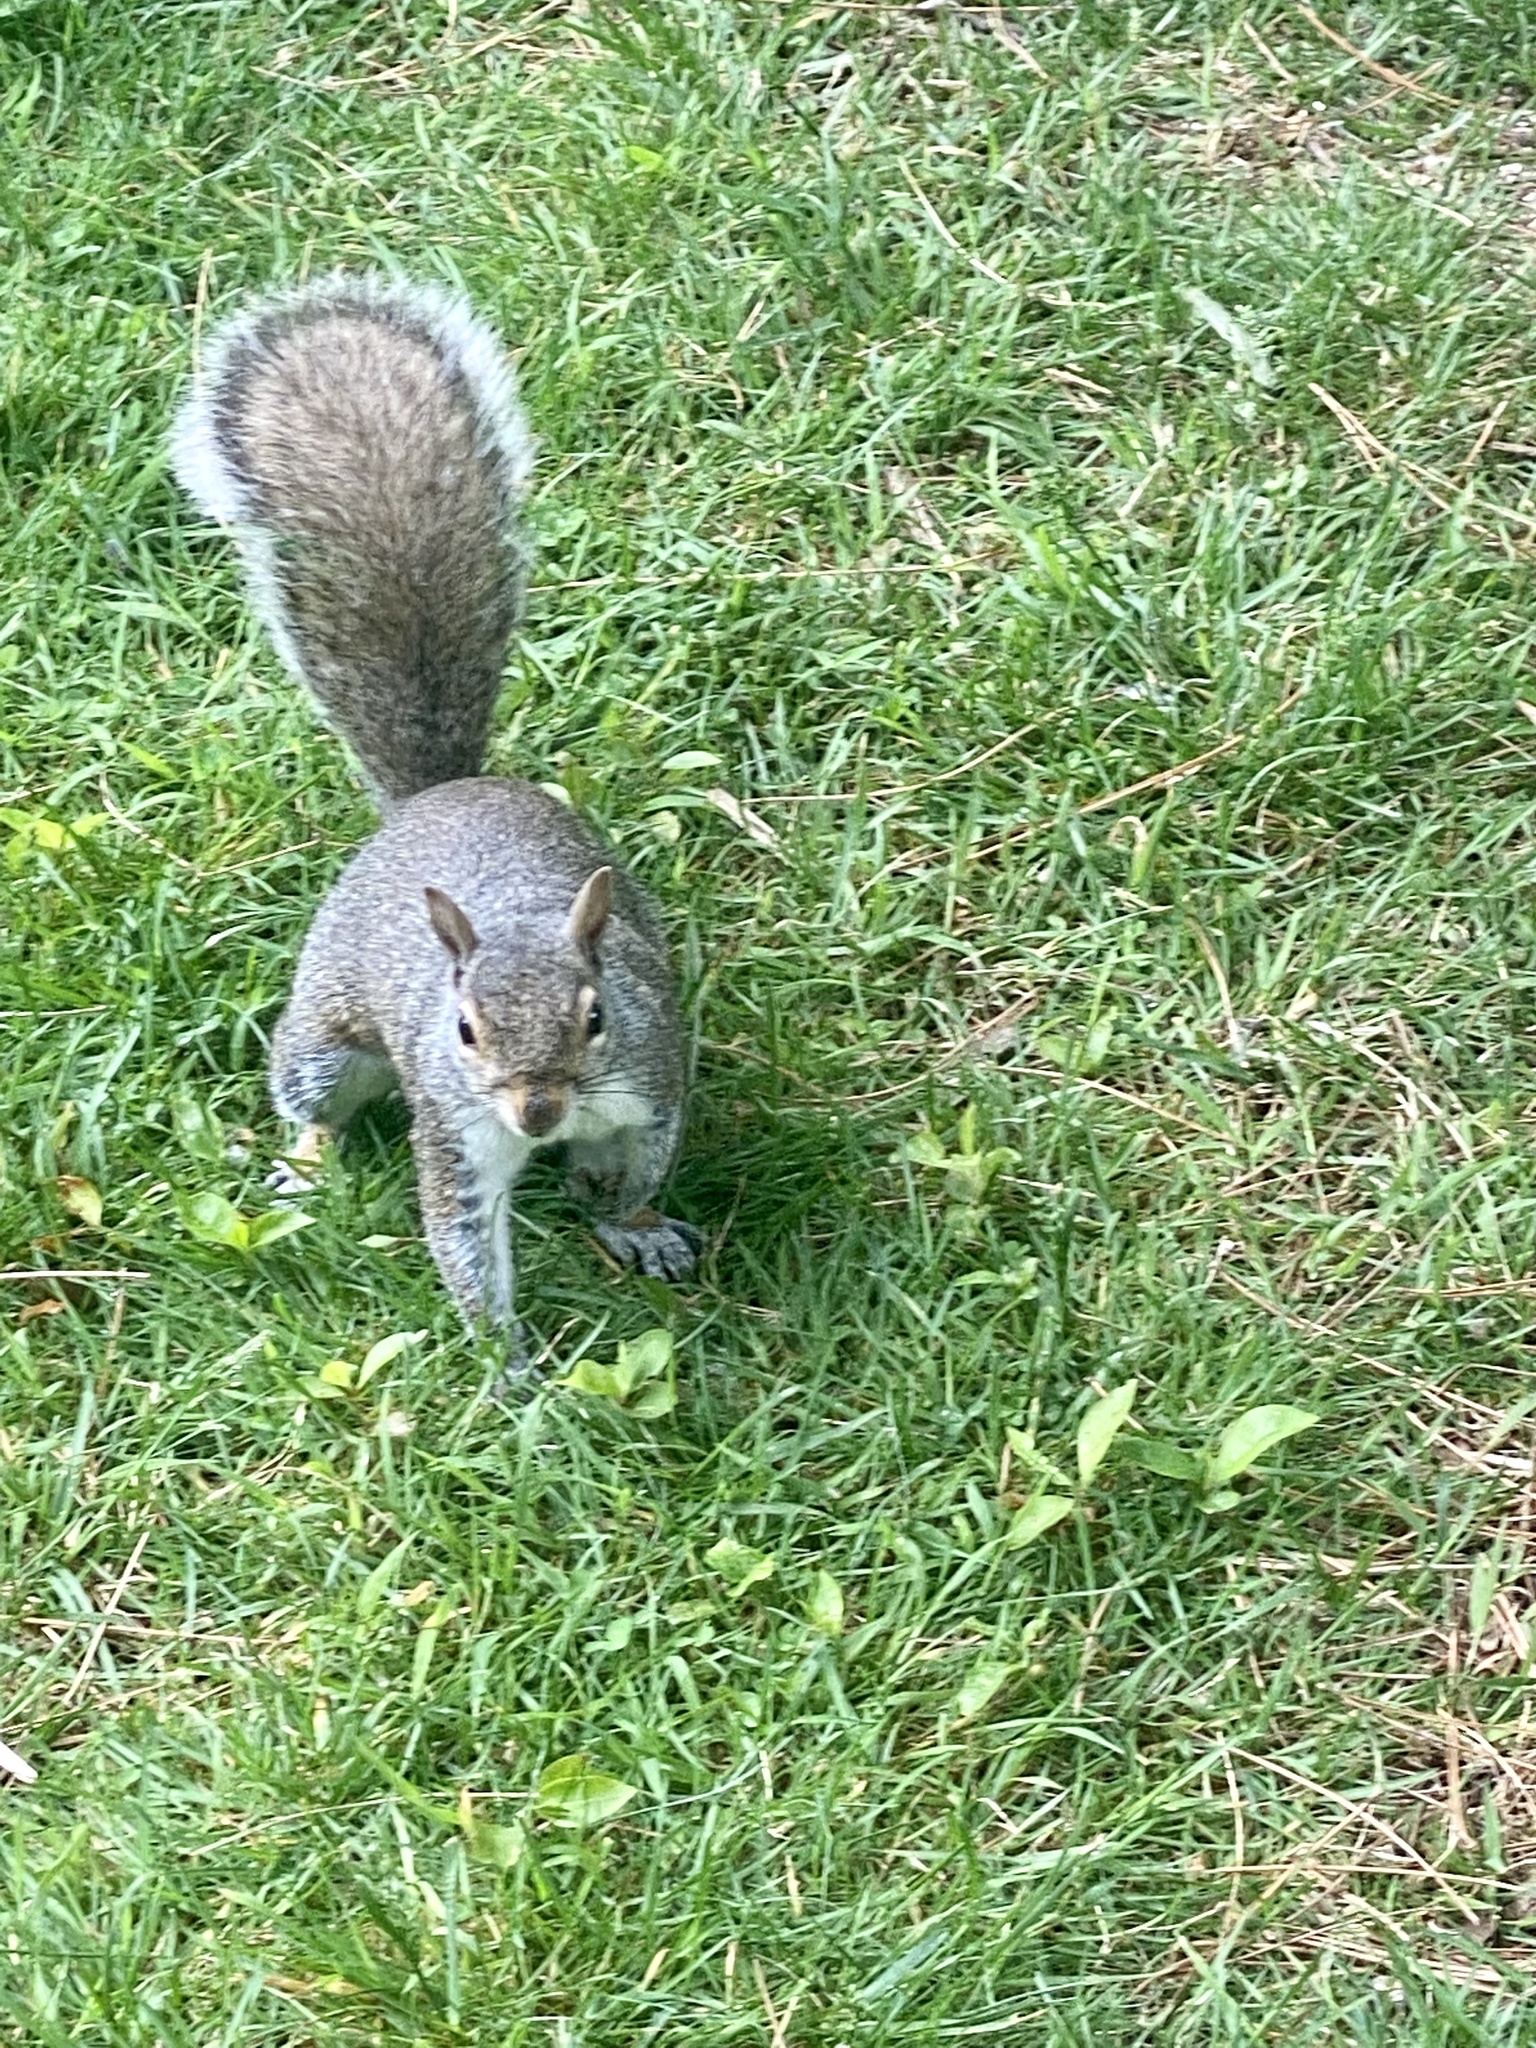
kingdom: Animalia
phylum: Chordata
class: Mammalia
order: Rodentia
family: Sciuridae
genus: Sciurus
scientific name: Sciurus carolinensis
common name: Eastern gray squirrel
